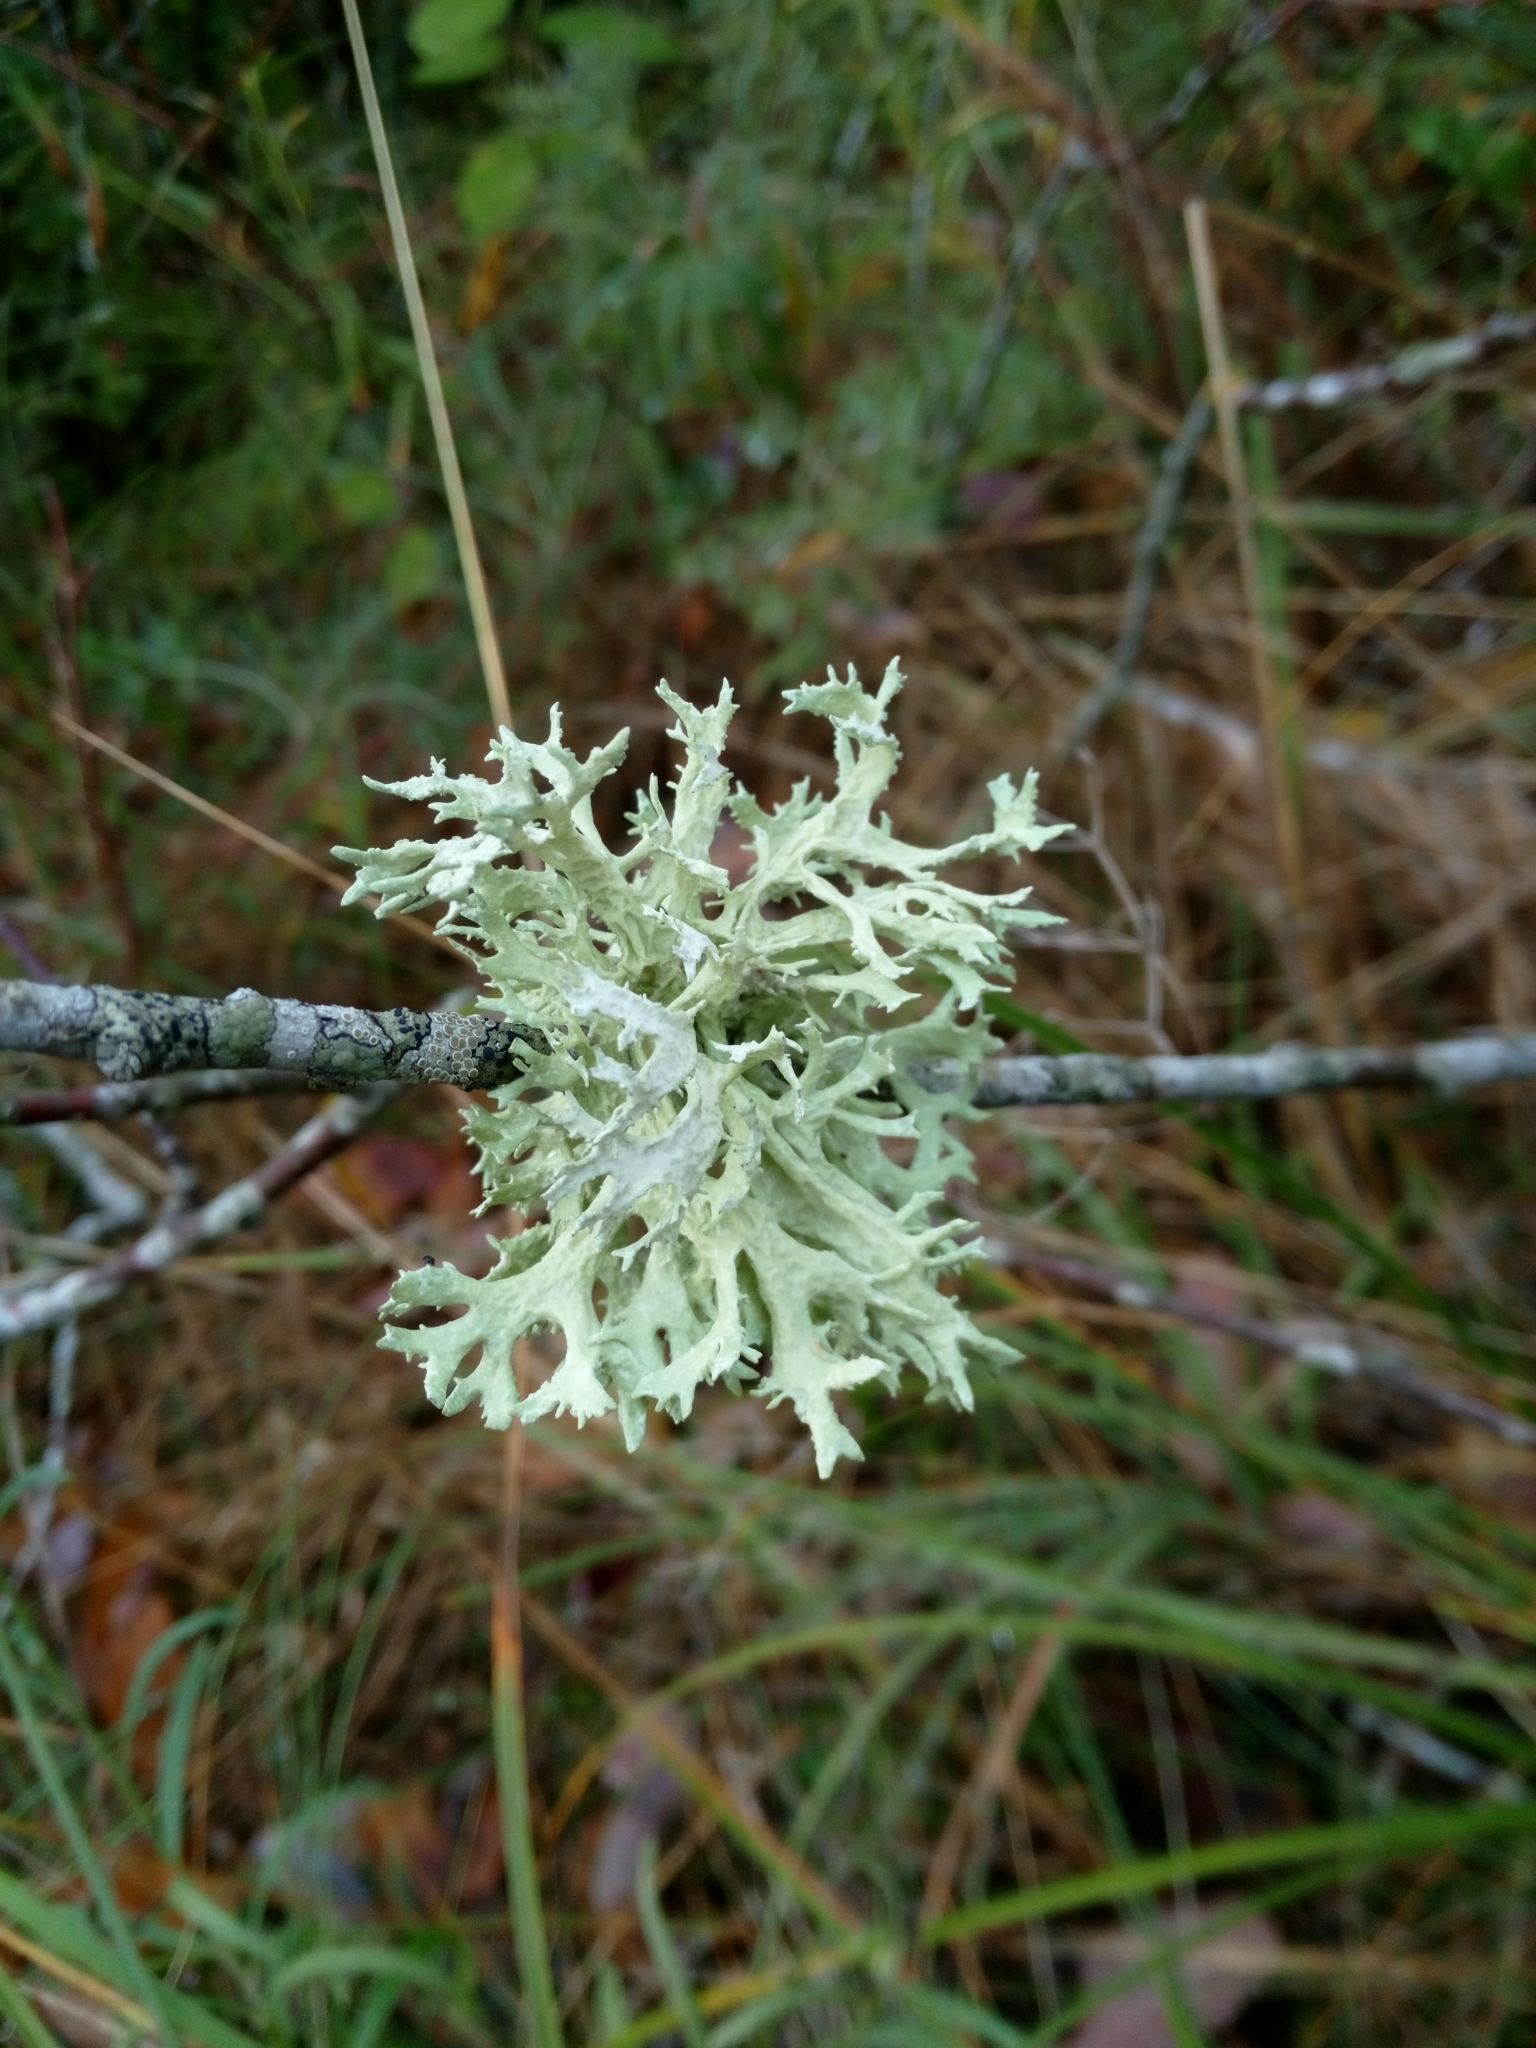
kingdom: Fungi
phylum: Ascomycota
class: Lecanoromycetes
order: Lecanorales
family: Parmeliaceae
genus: Evernia
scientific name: Evernia prunastri
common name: Oak moss
